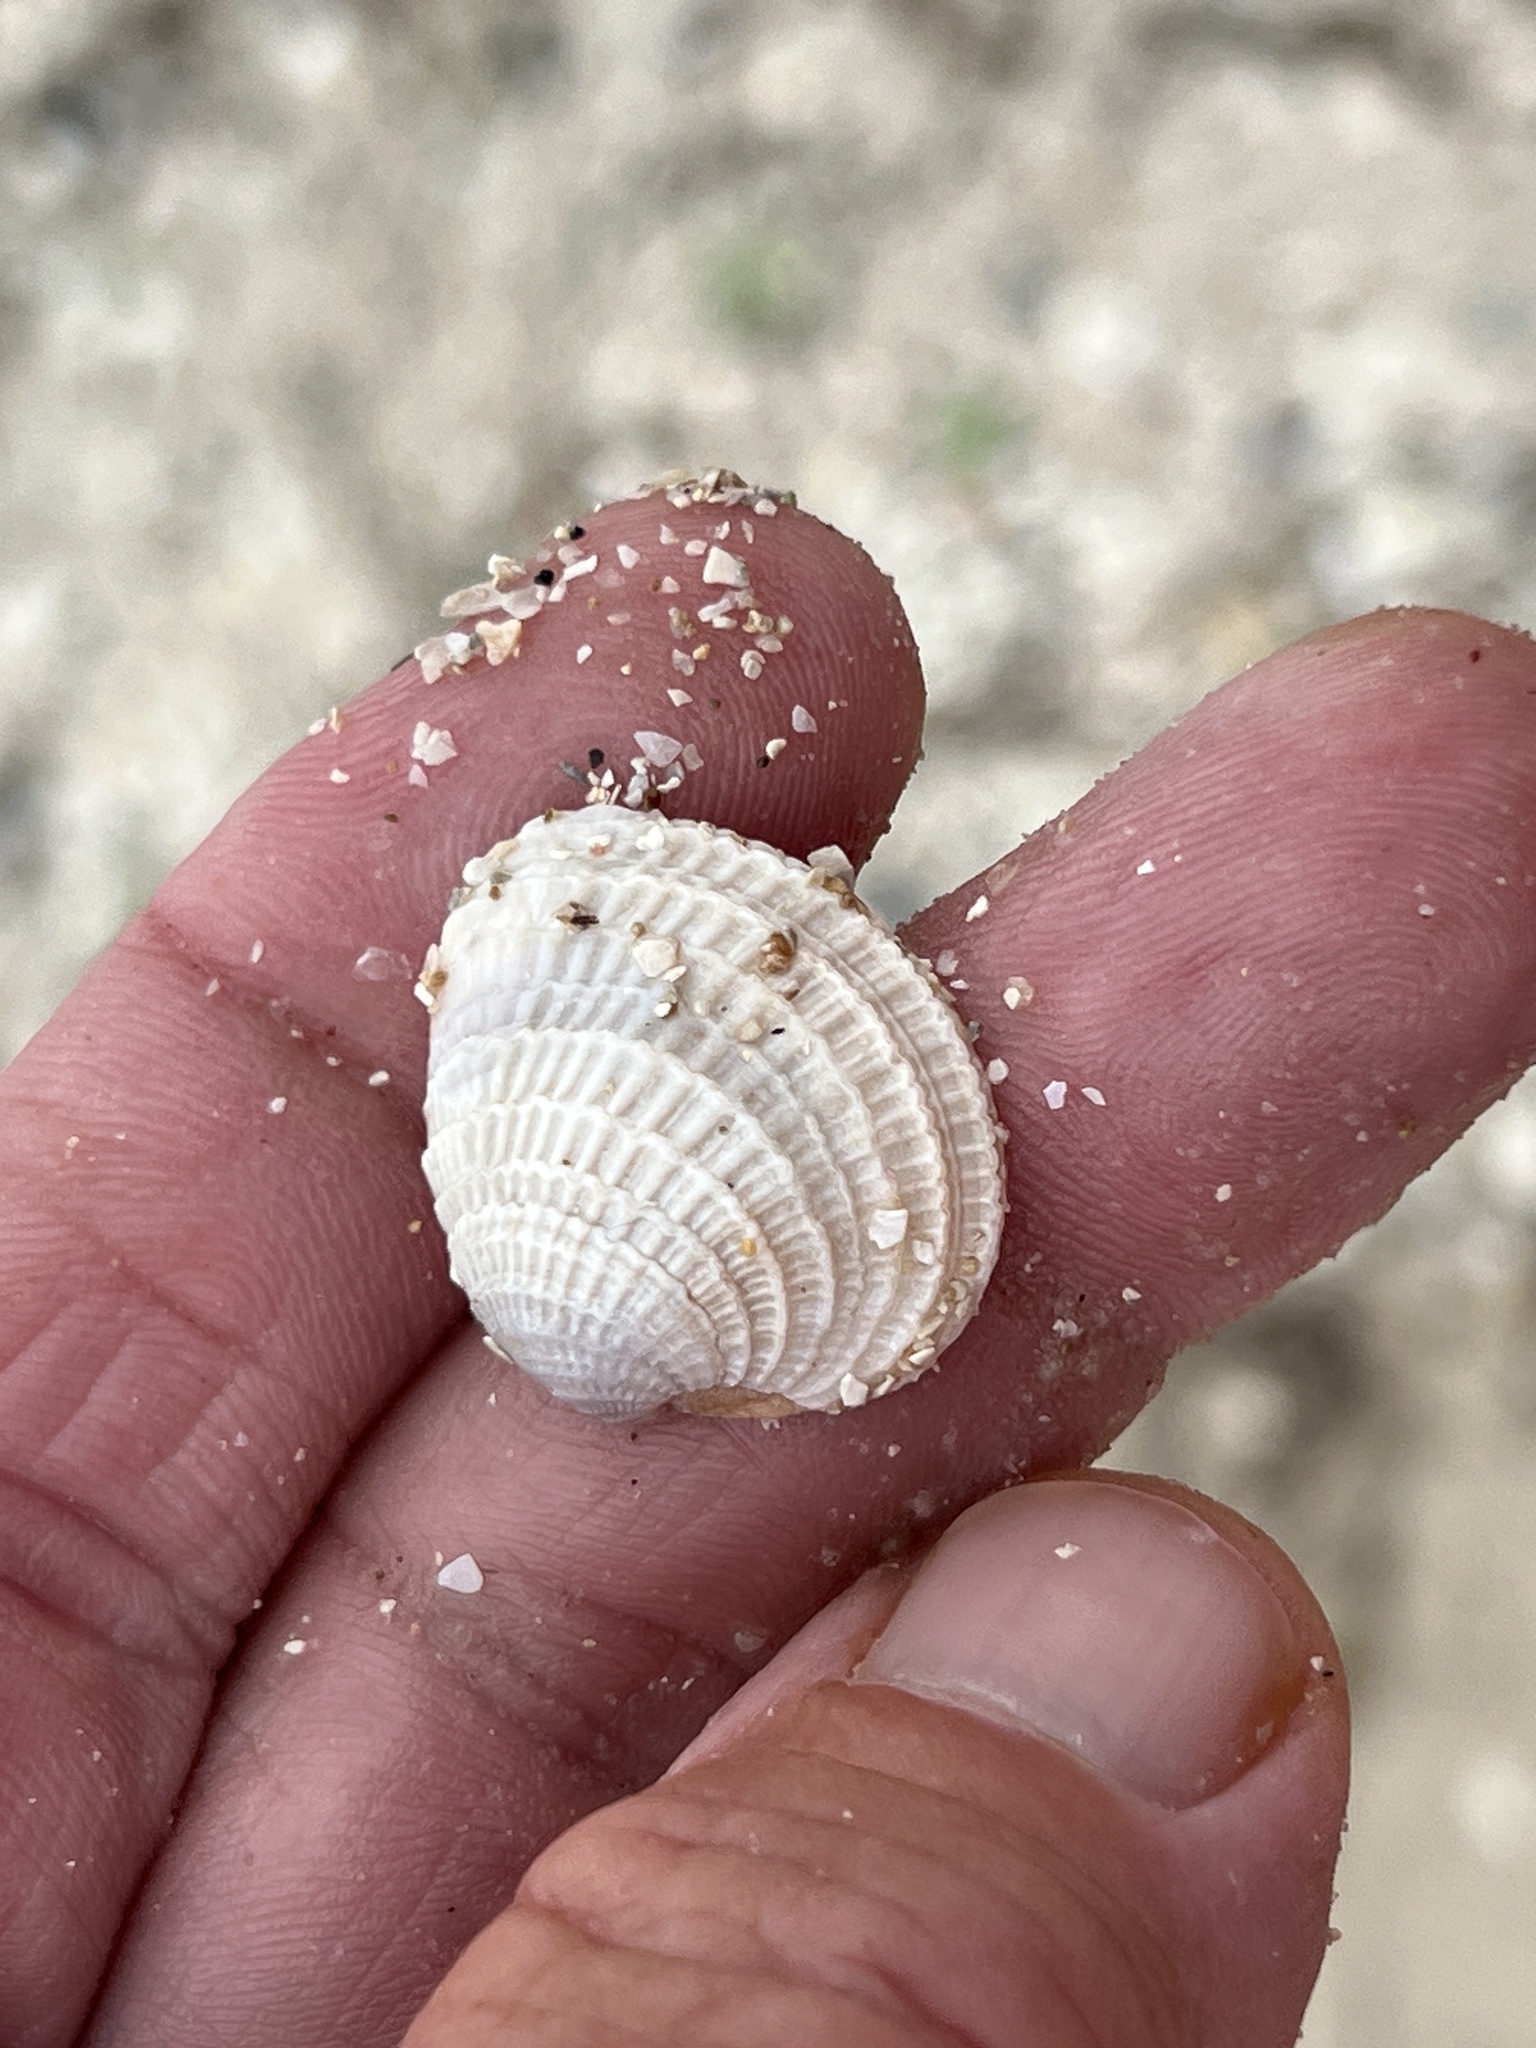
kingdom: Animalia
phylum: Mollusca
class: Bivalvia
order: Venerida
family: Veneridae
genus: Chione
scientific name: Chione elevata
